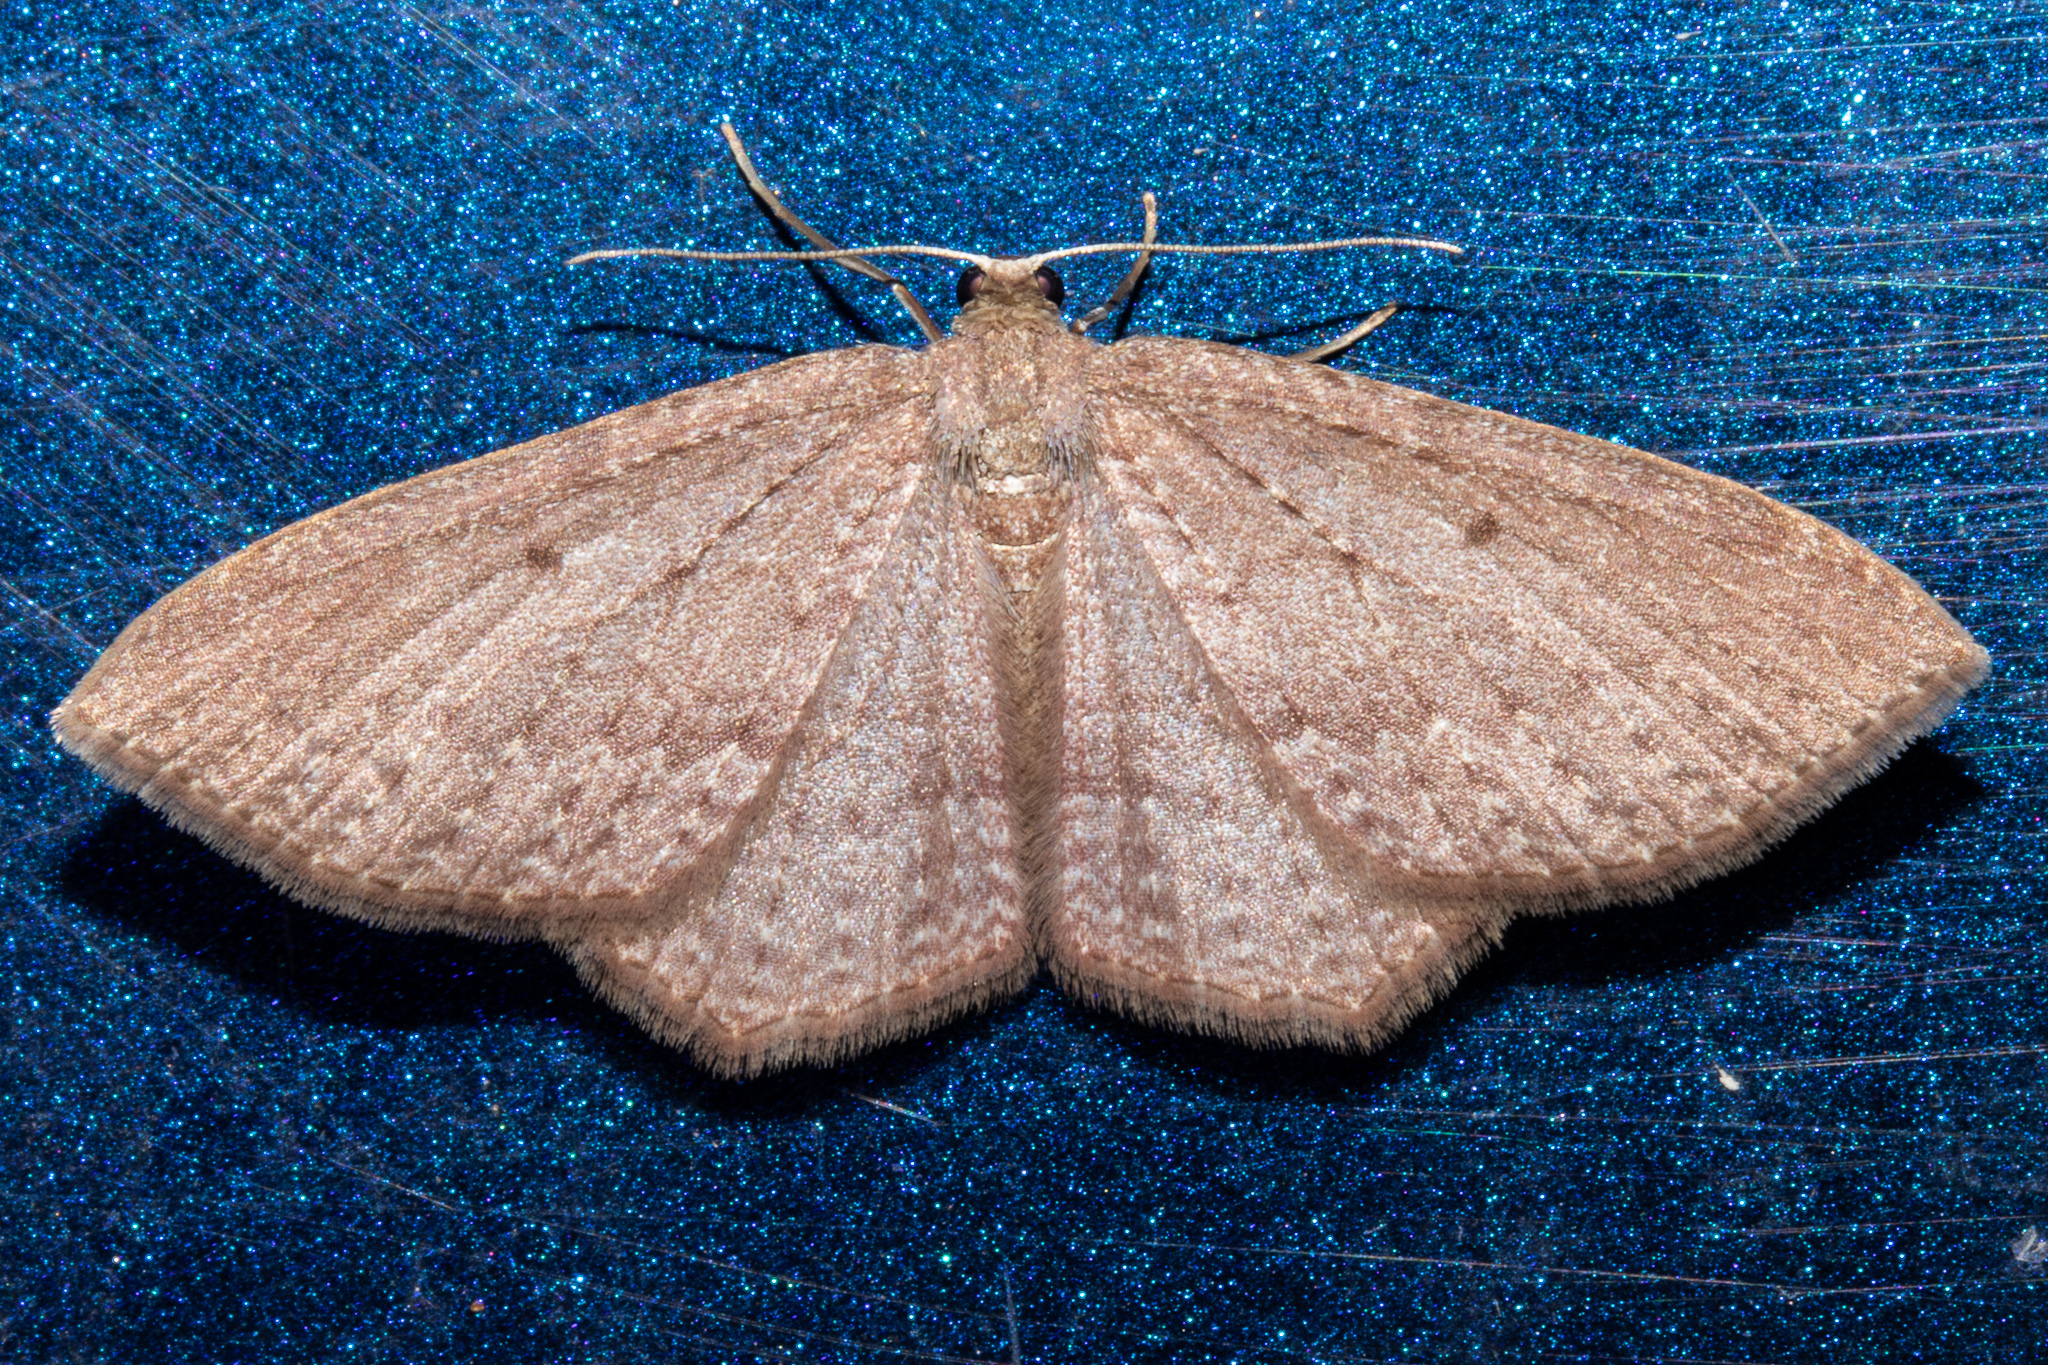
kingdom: Animalia
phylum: Arthropoda
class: Insecta
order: Lepidoptera
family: Geometridae
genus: Poecilasthena
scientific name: Poecilasthena subpurpureata
